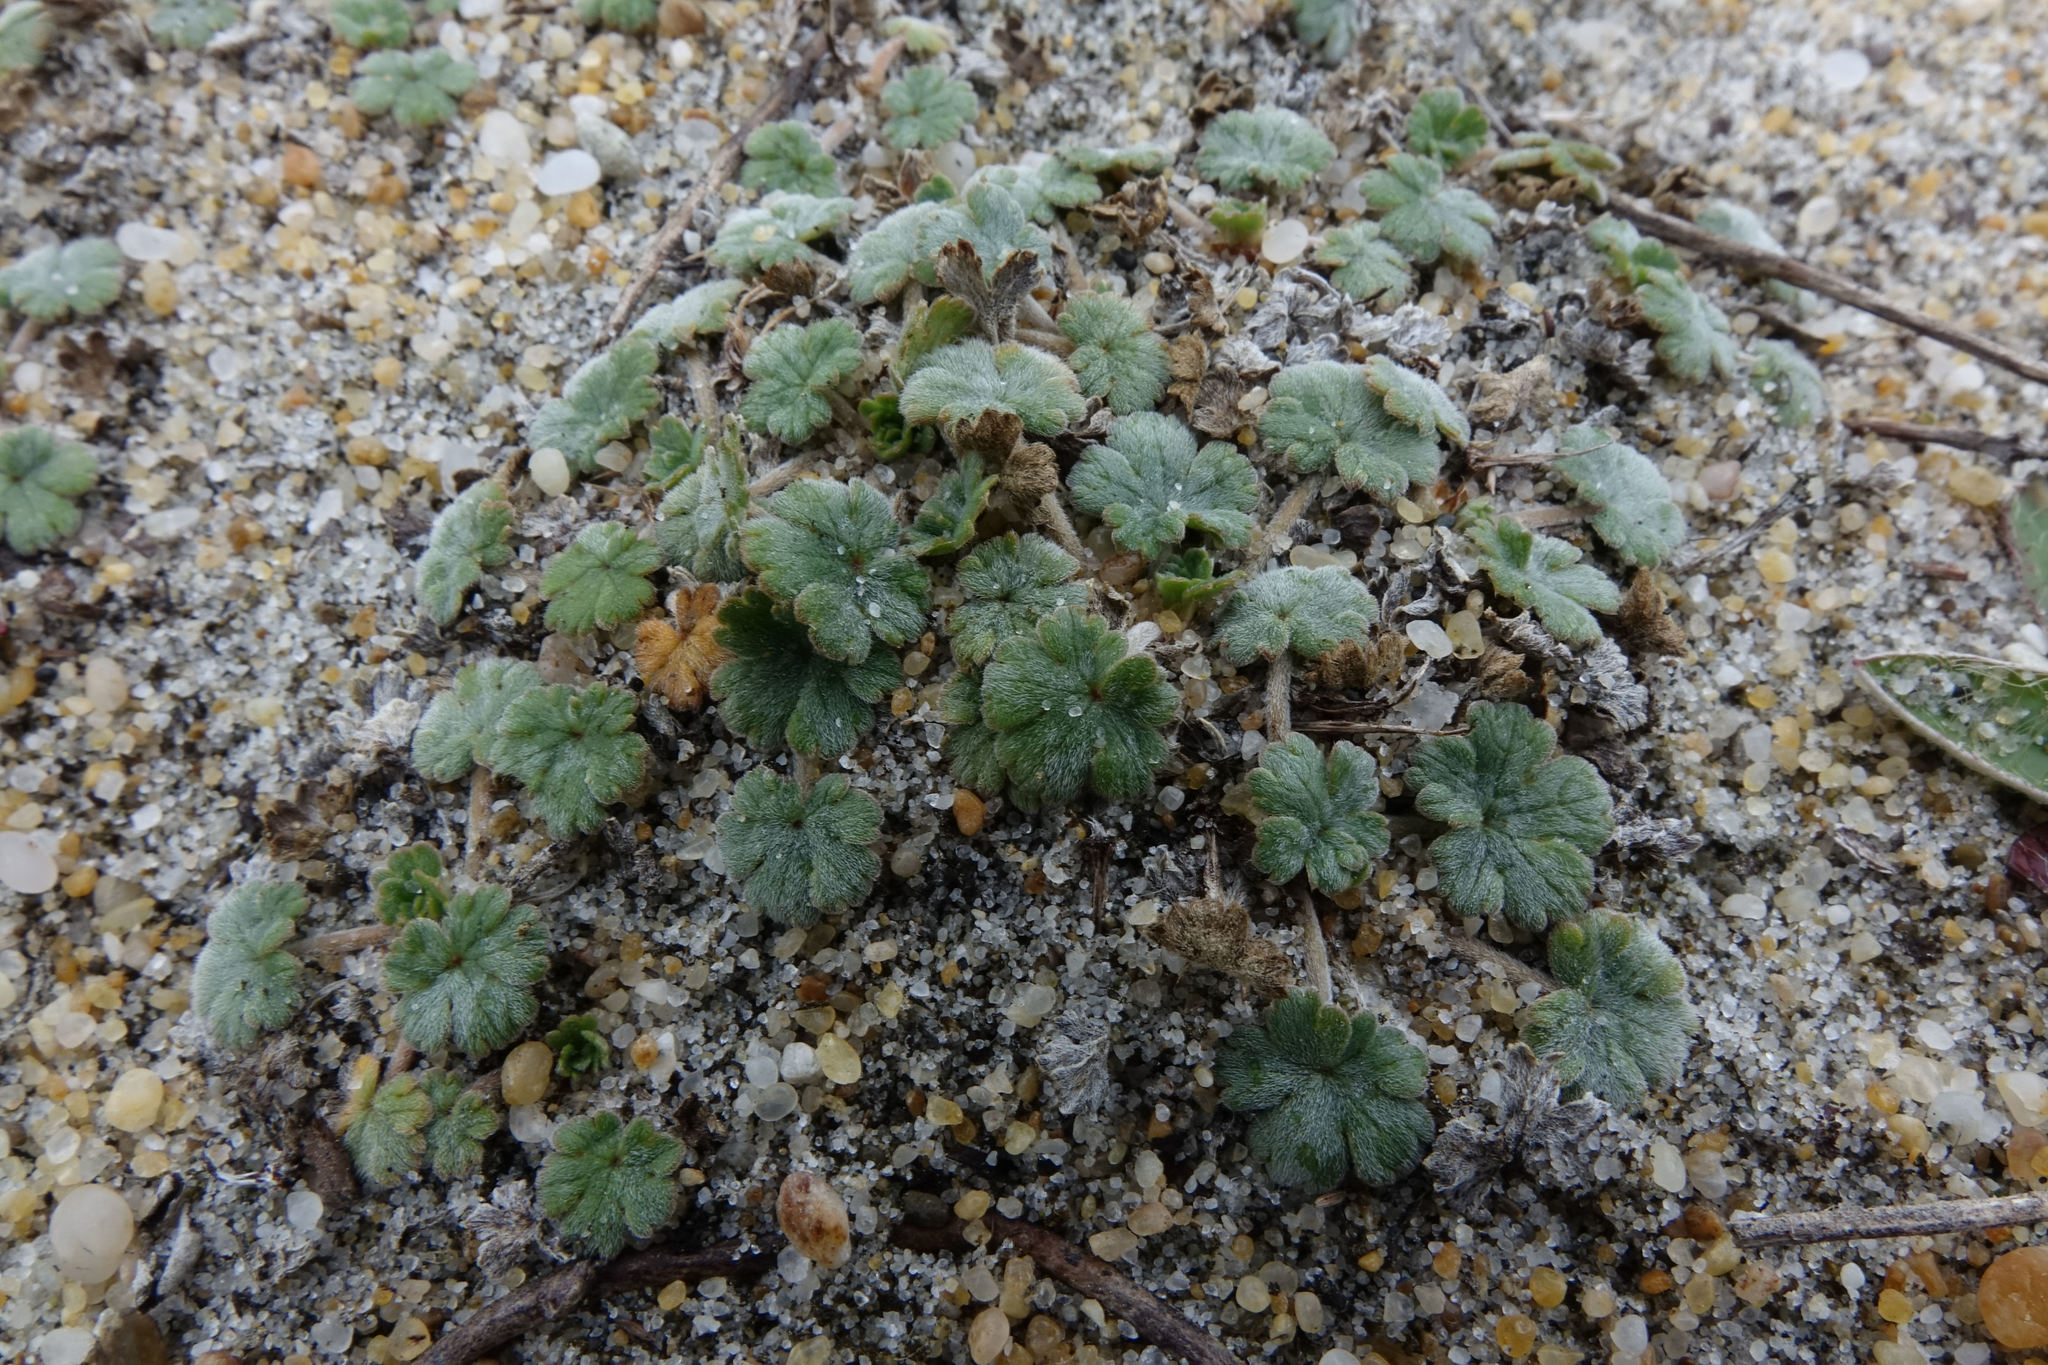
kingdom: Plantae
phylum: Tracheophyta
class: Magnoliopsida
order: Geraniales
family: Geraniaceae
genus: Geranium
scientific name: Geranium brevicaule
